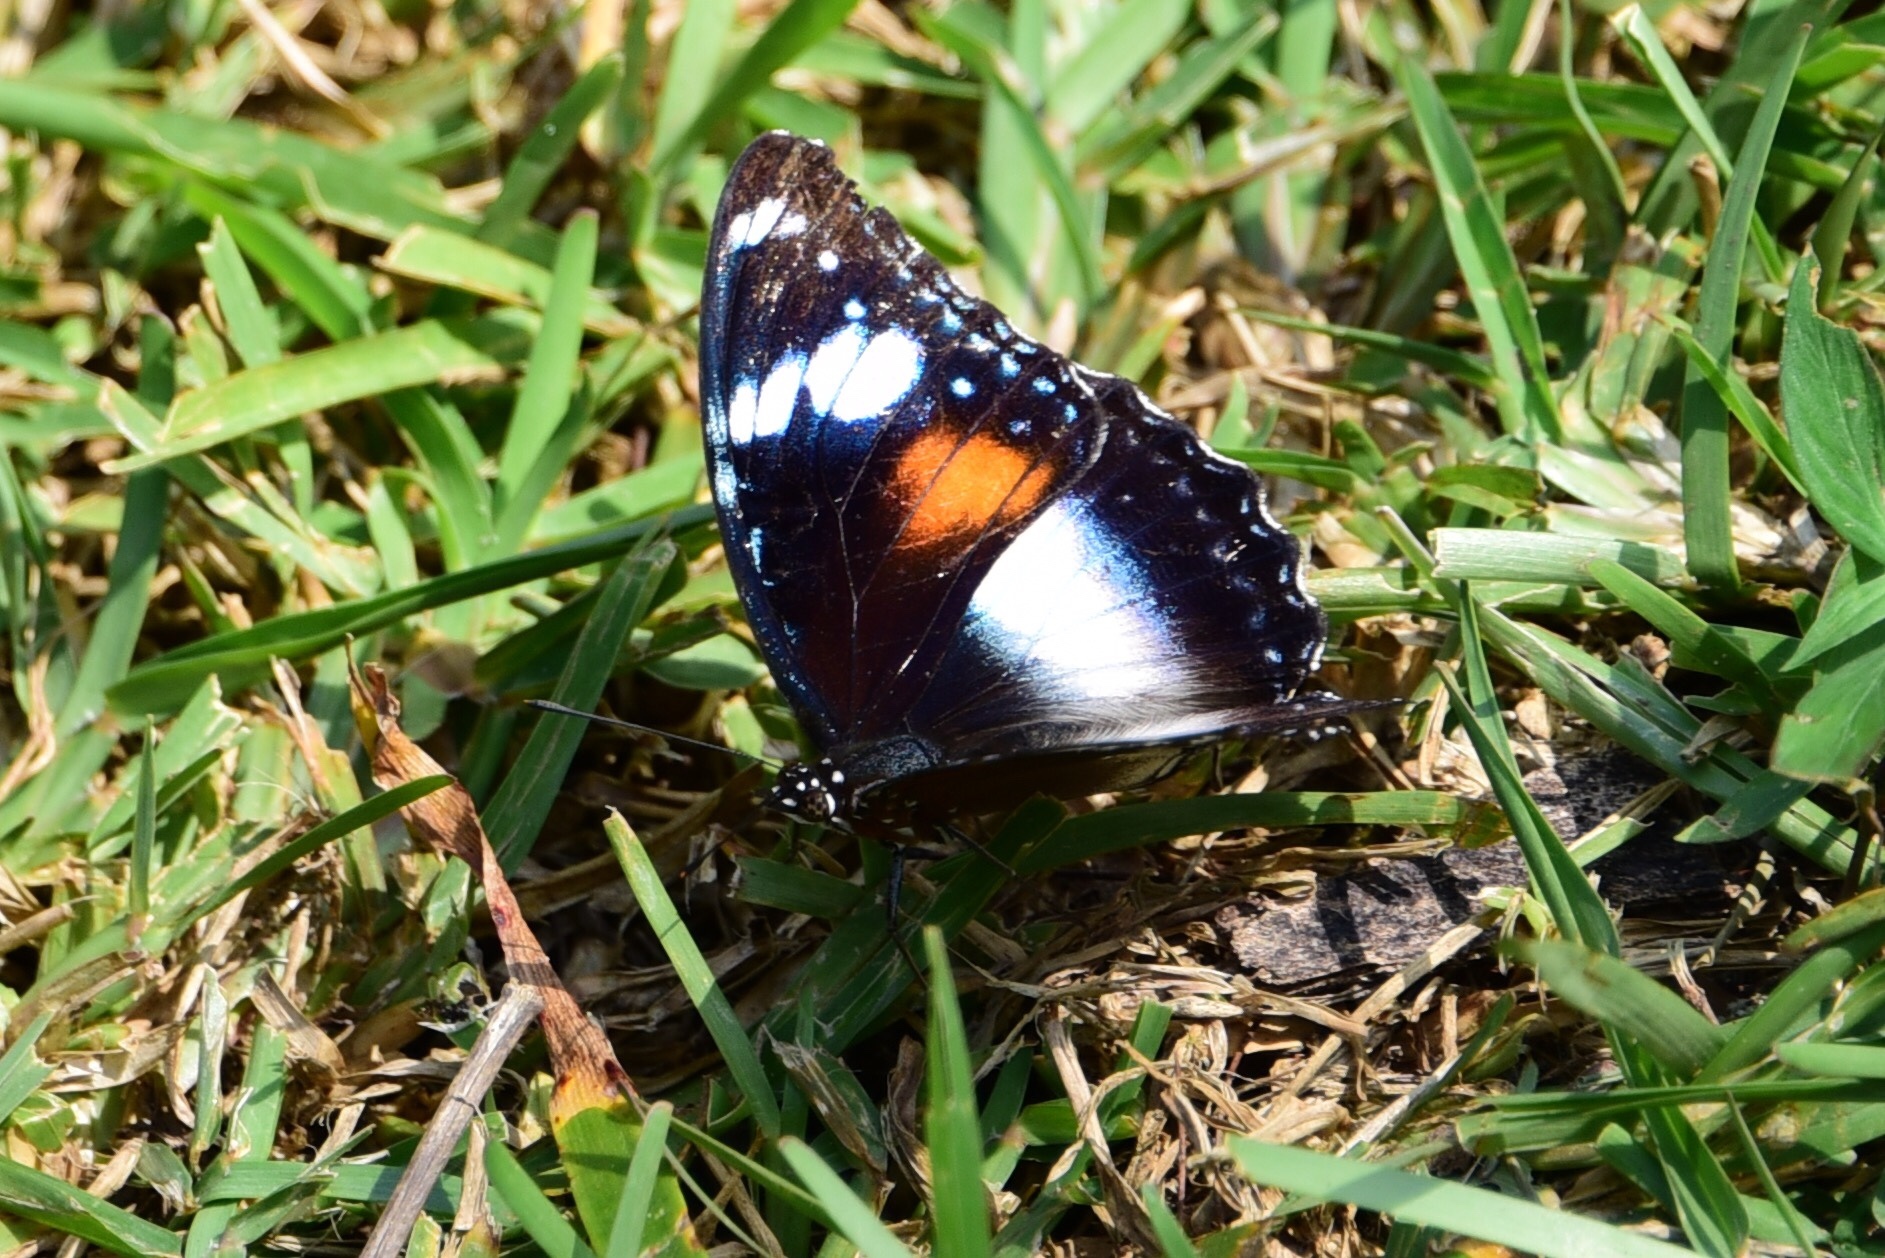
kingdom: Animalia
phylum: Arthropoda
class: Insecta
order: Lepidoptera
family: Nymphalidae
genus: Hypolimnas
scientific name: Hypolimnas bolina
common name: Great eggfly
